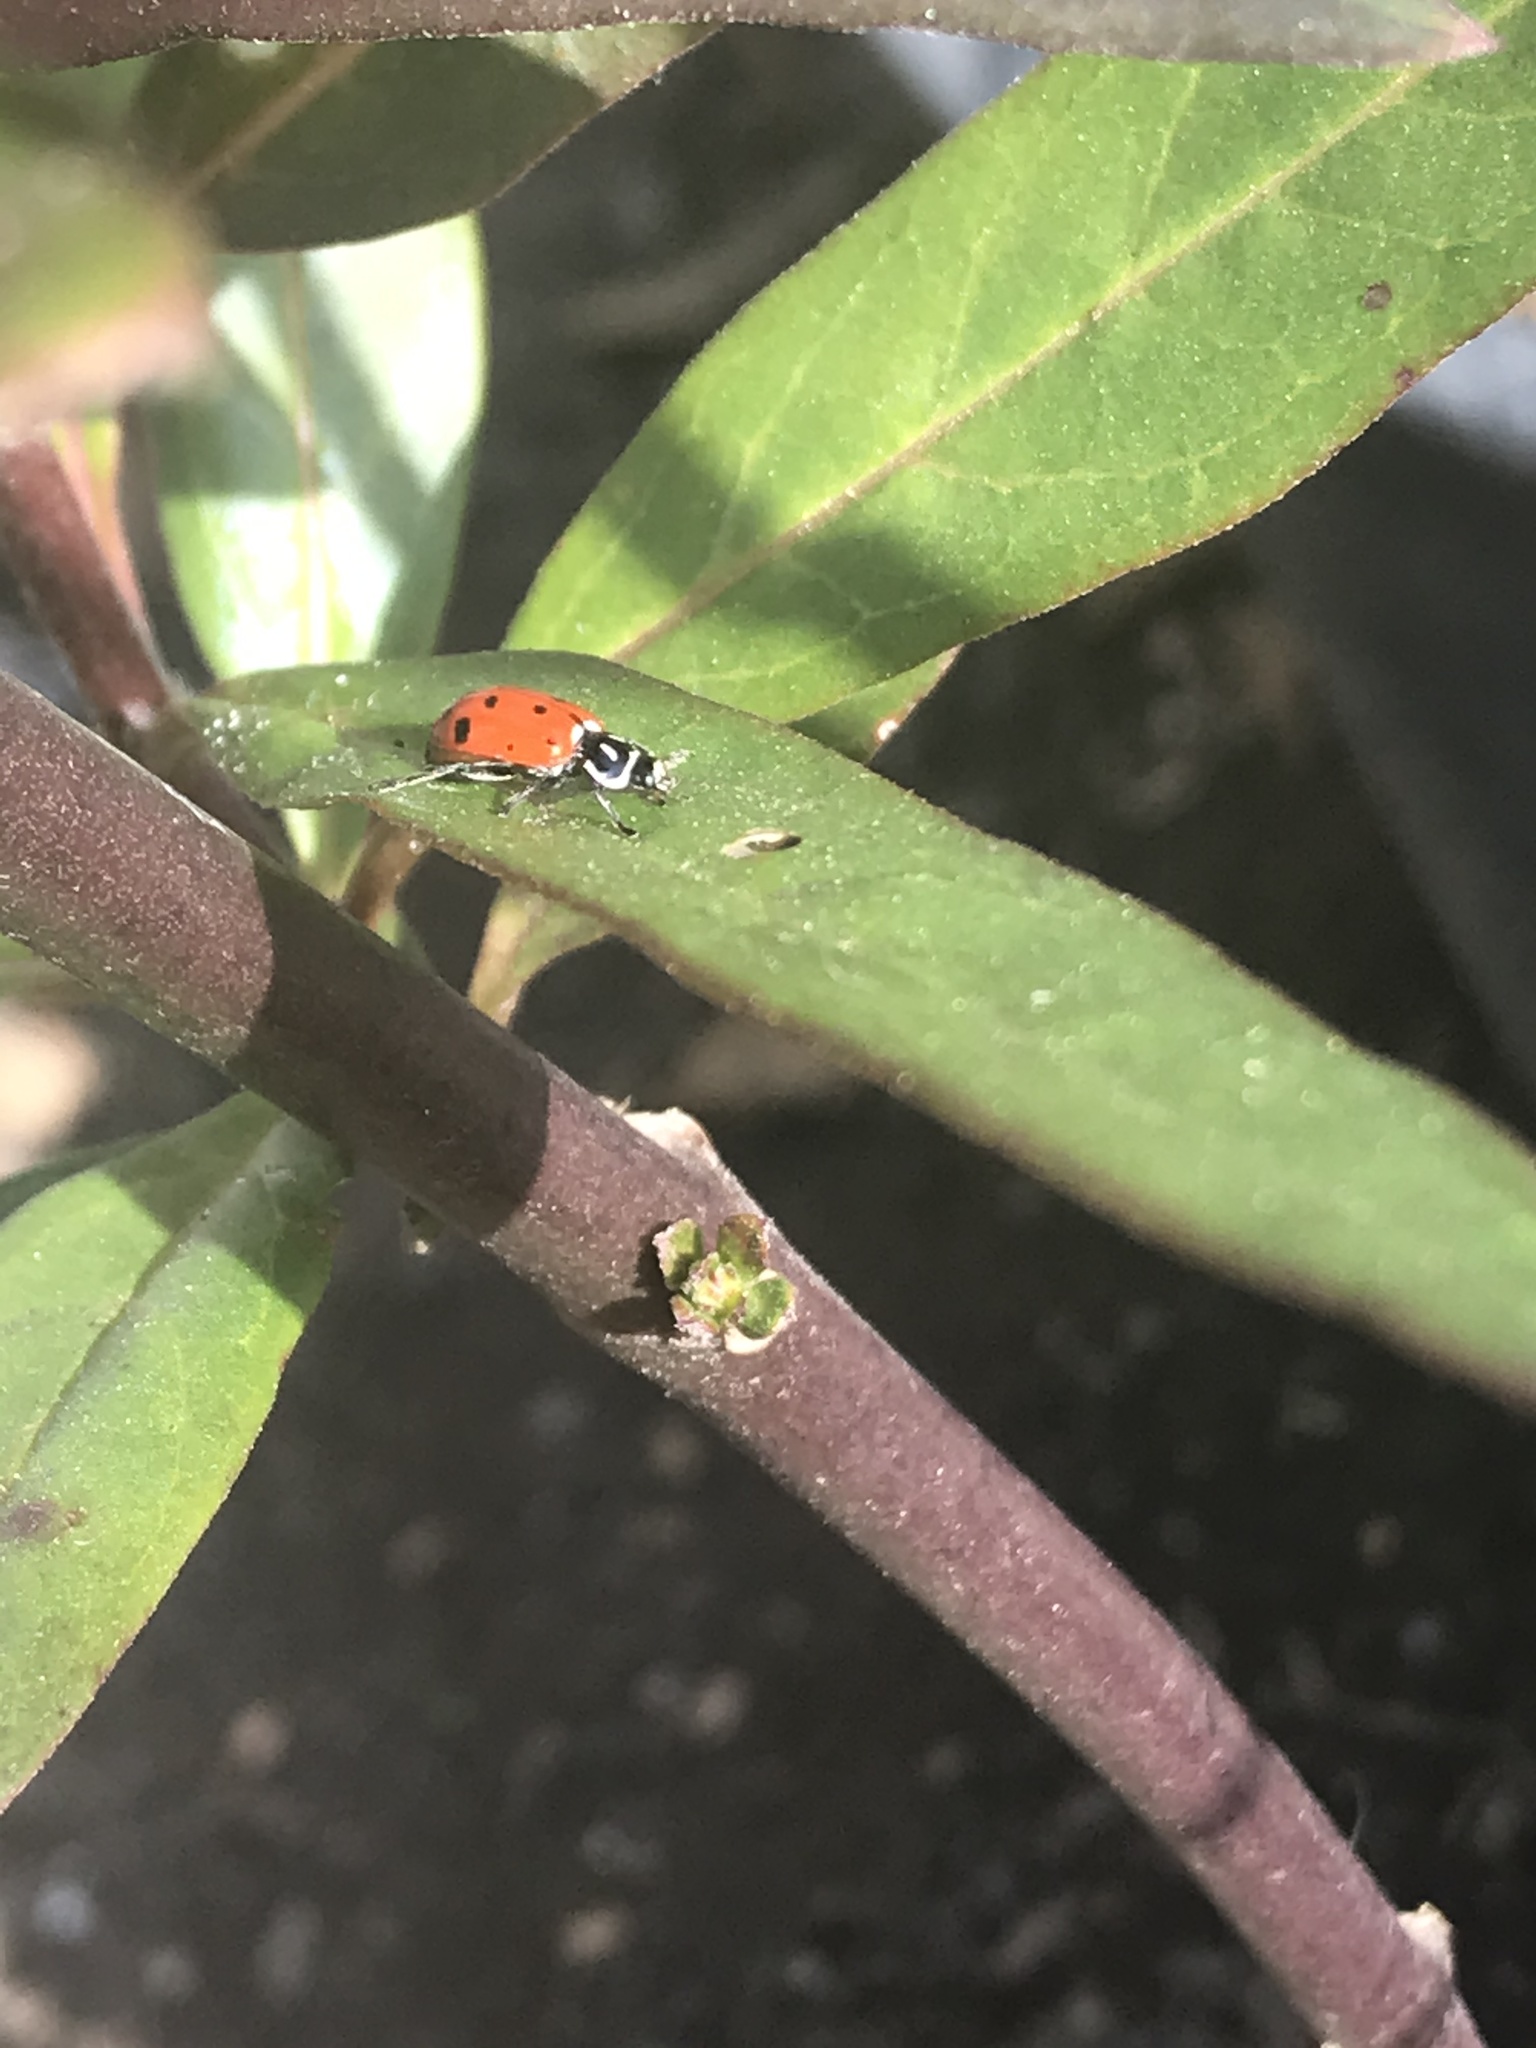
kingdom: Animalia
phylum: Arthropoda
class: Insecta
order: Coleoptera
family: Coccinellidae
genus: Hippodamia
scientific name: Hippodamia convergens
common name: Convergent lady beetle
